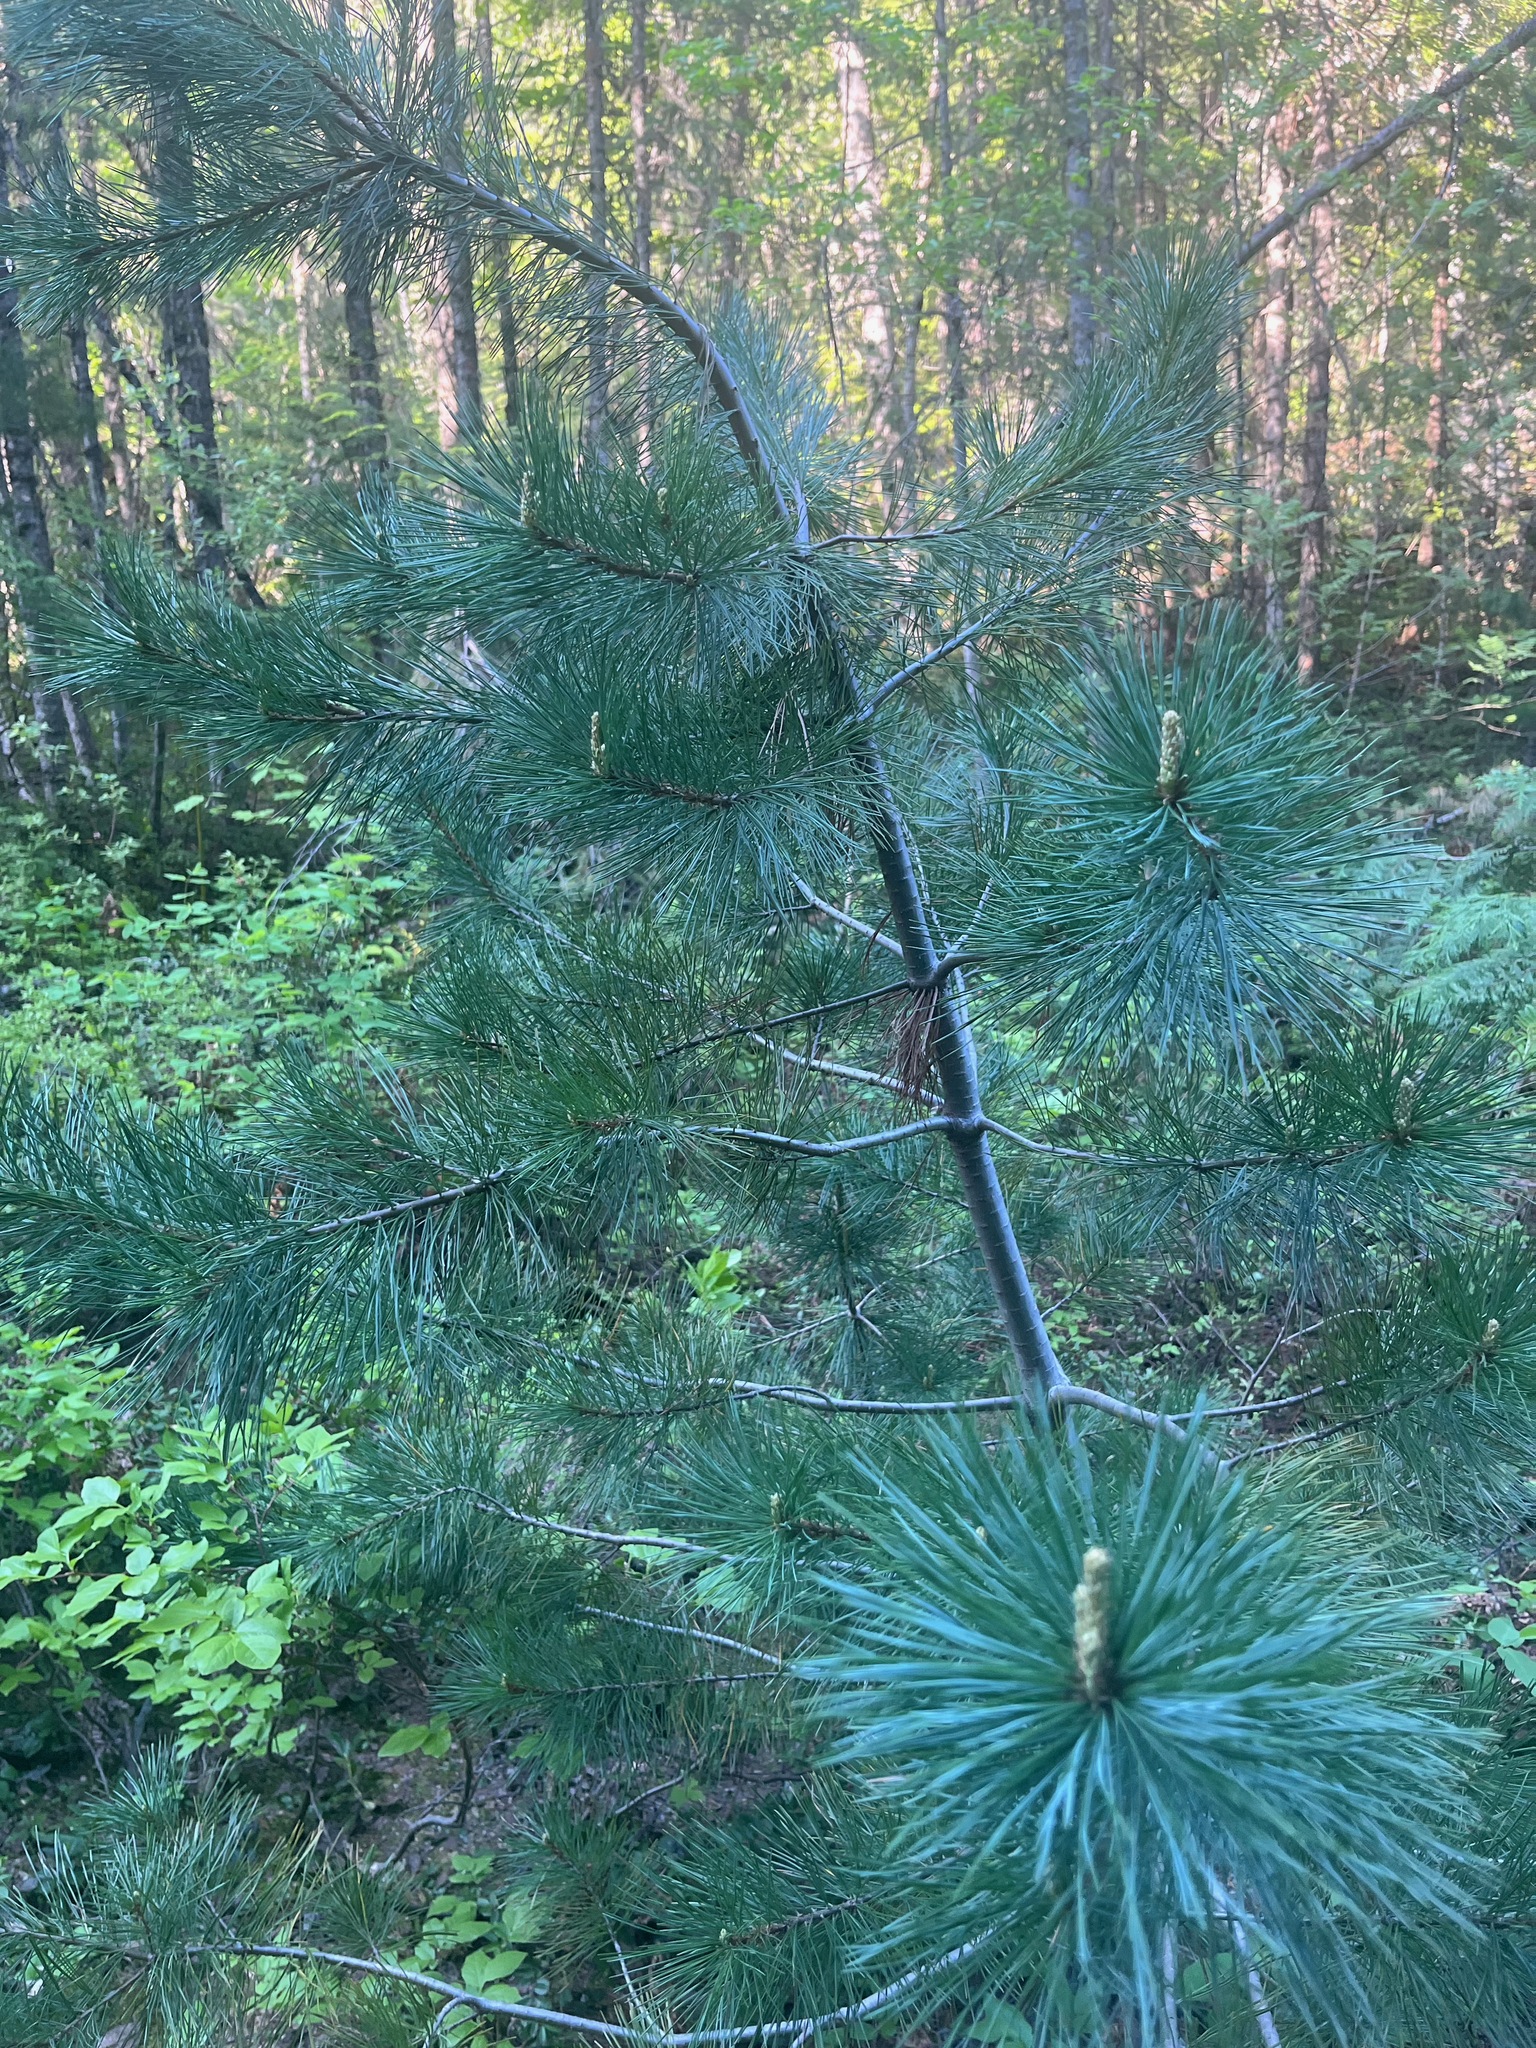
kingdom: Plantae
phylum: Tracheophyta
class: Pinopsida
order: Pinales
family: Pinaceae
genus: Pinus
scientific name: Pinus monticola
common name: Western white pine
